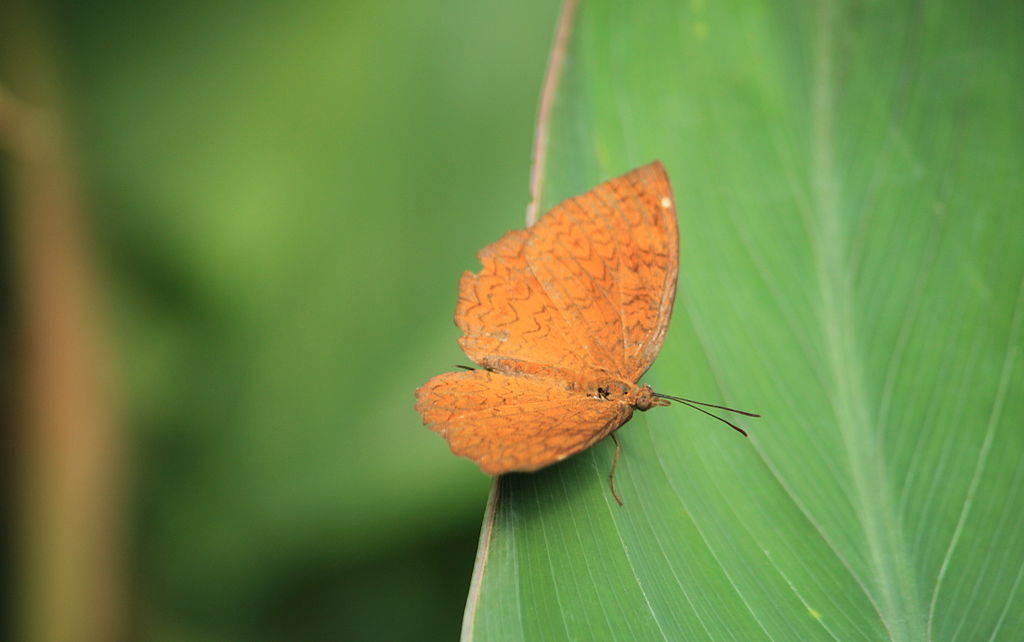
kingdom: Animalia
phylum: Arthropoda
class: Insecta
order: Lepidoptera
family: Nymphalidae
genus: Ariadne
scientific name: Ariadne merione
